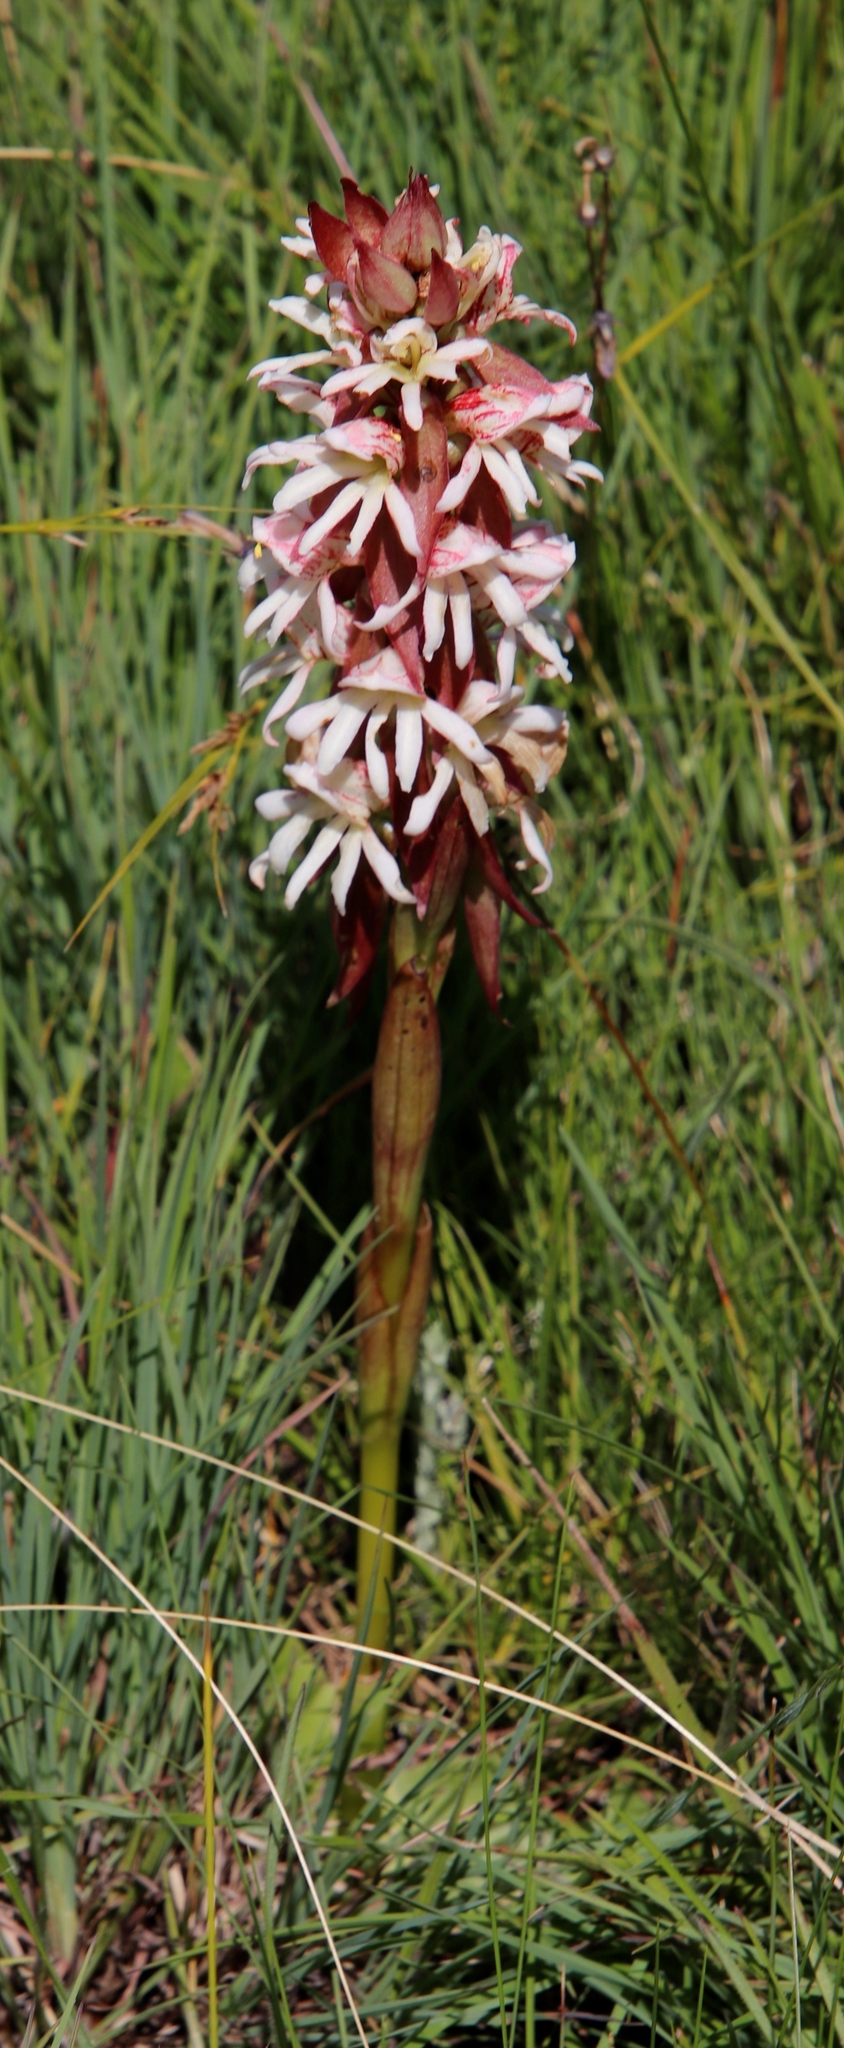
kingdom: Plantae
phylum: Tracheophyta
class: Liliopsida
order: Asparagales
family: Orchidaceae
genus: Satyrium
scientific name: Satyrium sphaerocarpum
